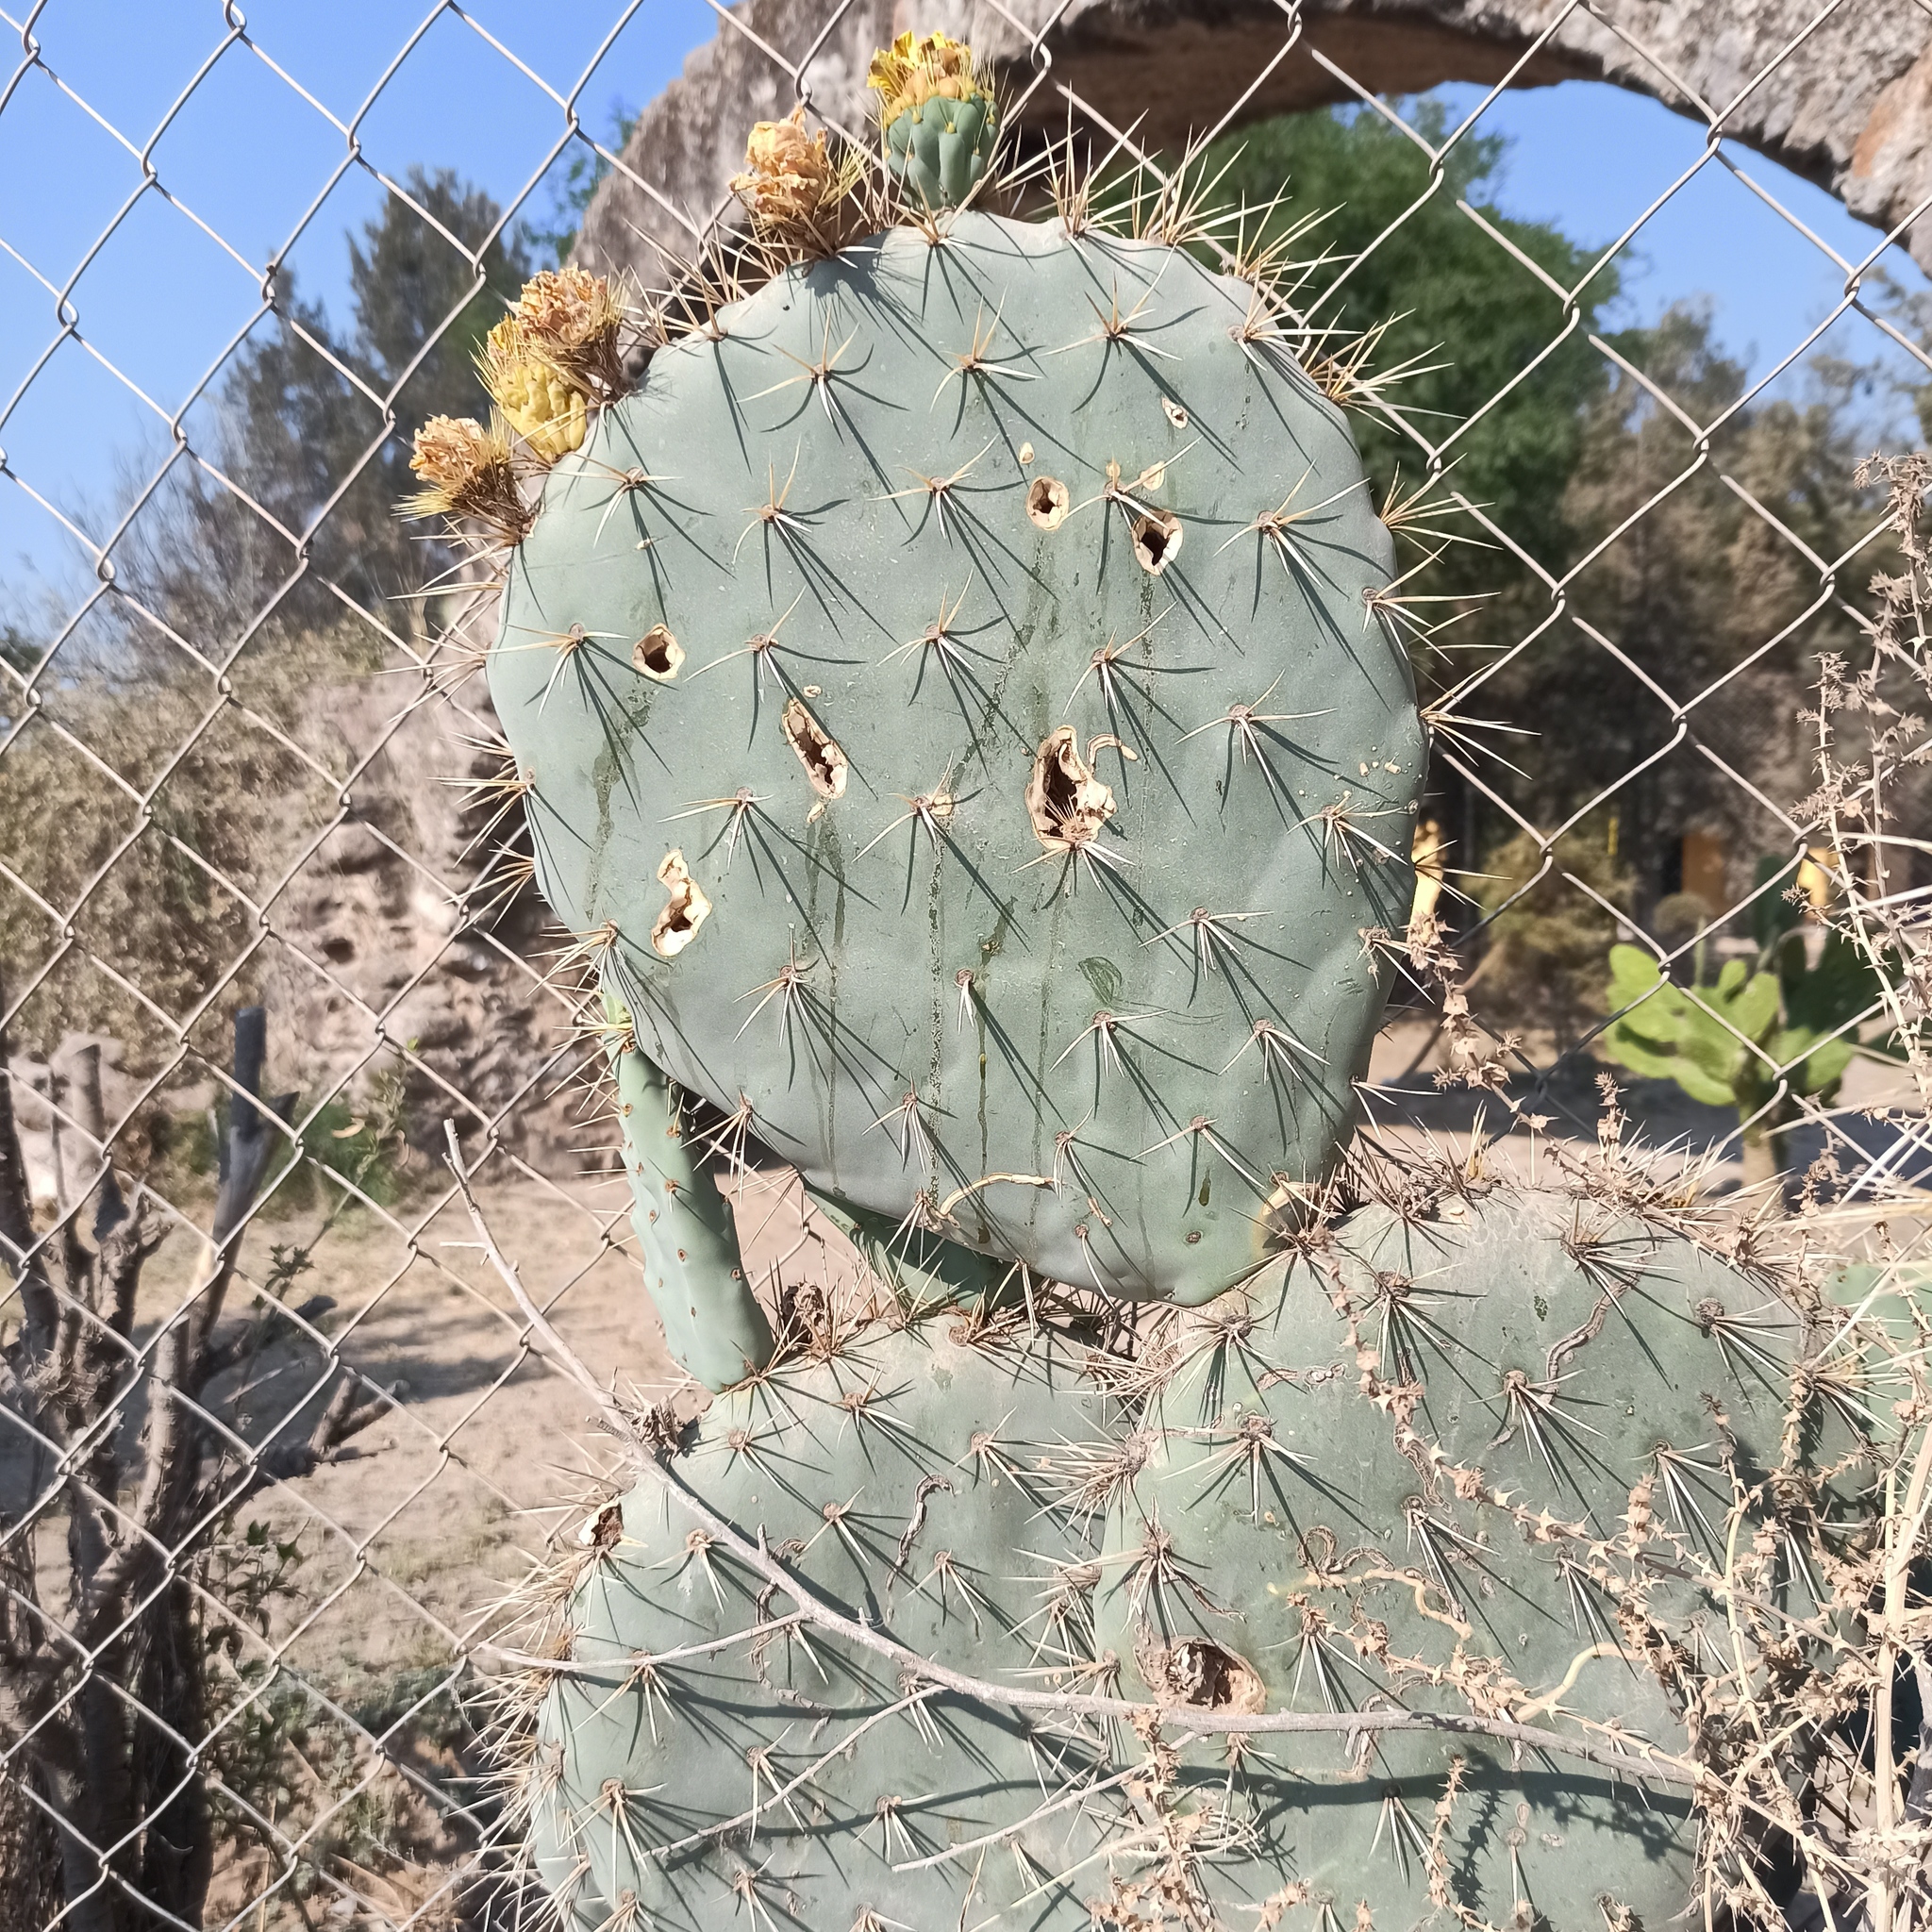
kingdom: Plantae
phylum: Tracheophyta
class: Magnoliopsida
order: Caryophyllales
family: Cactaceae
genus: Opuntia
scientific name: Opuntia robusta
